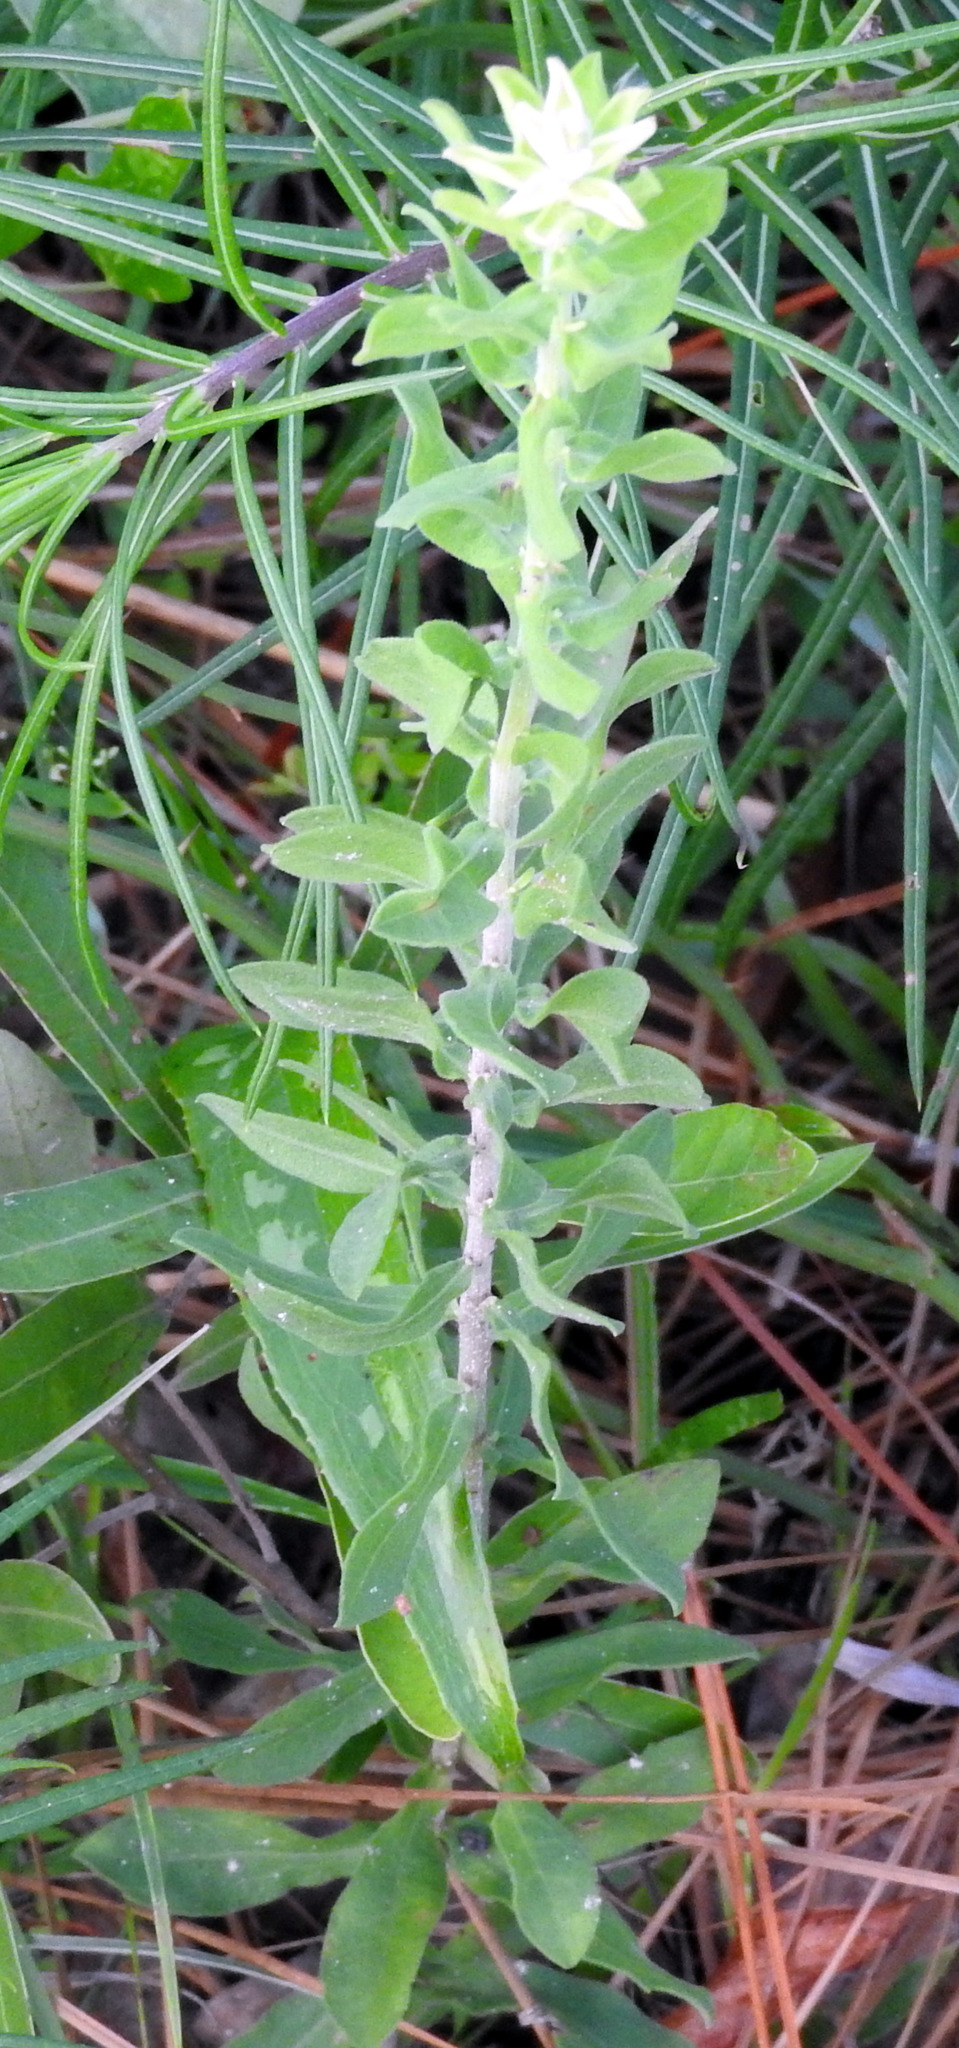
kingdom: Plantae
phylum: Tracheophyta
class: Magnoliopsida
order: Asterales
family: Asteraceae
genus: Sericocarpus
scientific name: Sericocarpus tortifolius
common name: Dixie aster
